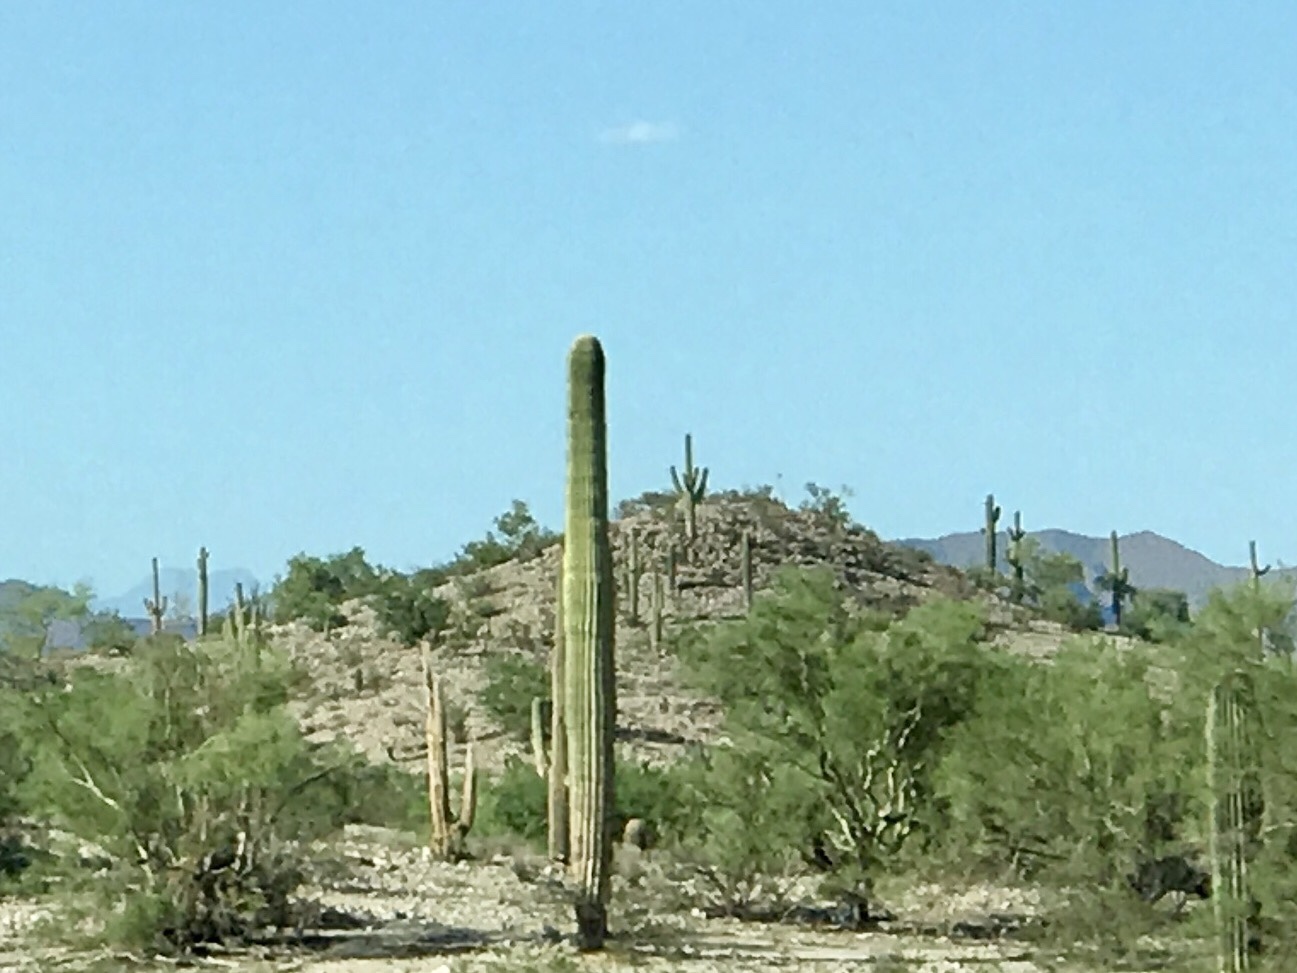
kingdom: Plantae
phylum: Tracheophyta
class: Magnoliopsida
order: Caryophyllales
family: Cactaceae
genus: Carnegiea
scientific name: Carnegiea gigantea
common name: Saguaro
